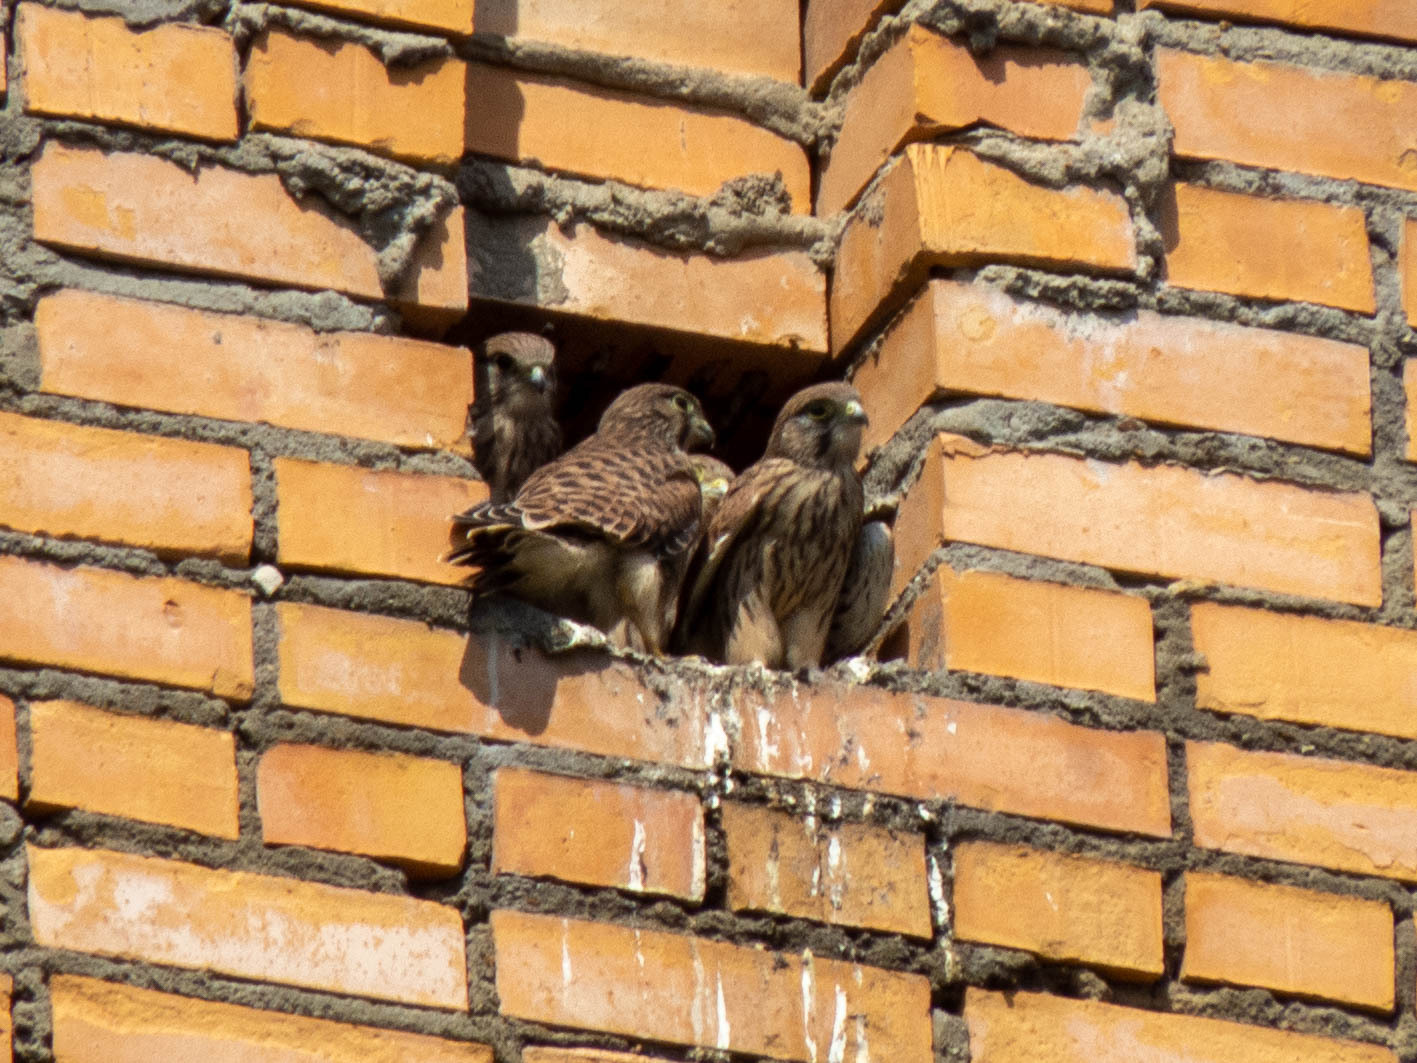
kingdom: Animalia
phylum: Chordata
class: Aves
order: Falconiformes
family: Falconidae
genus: Falco
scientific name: Falco tinnunculus
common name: Common kestrel
